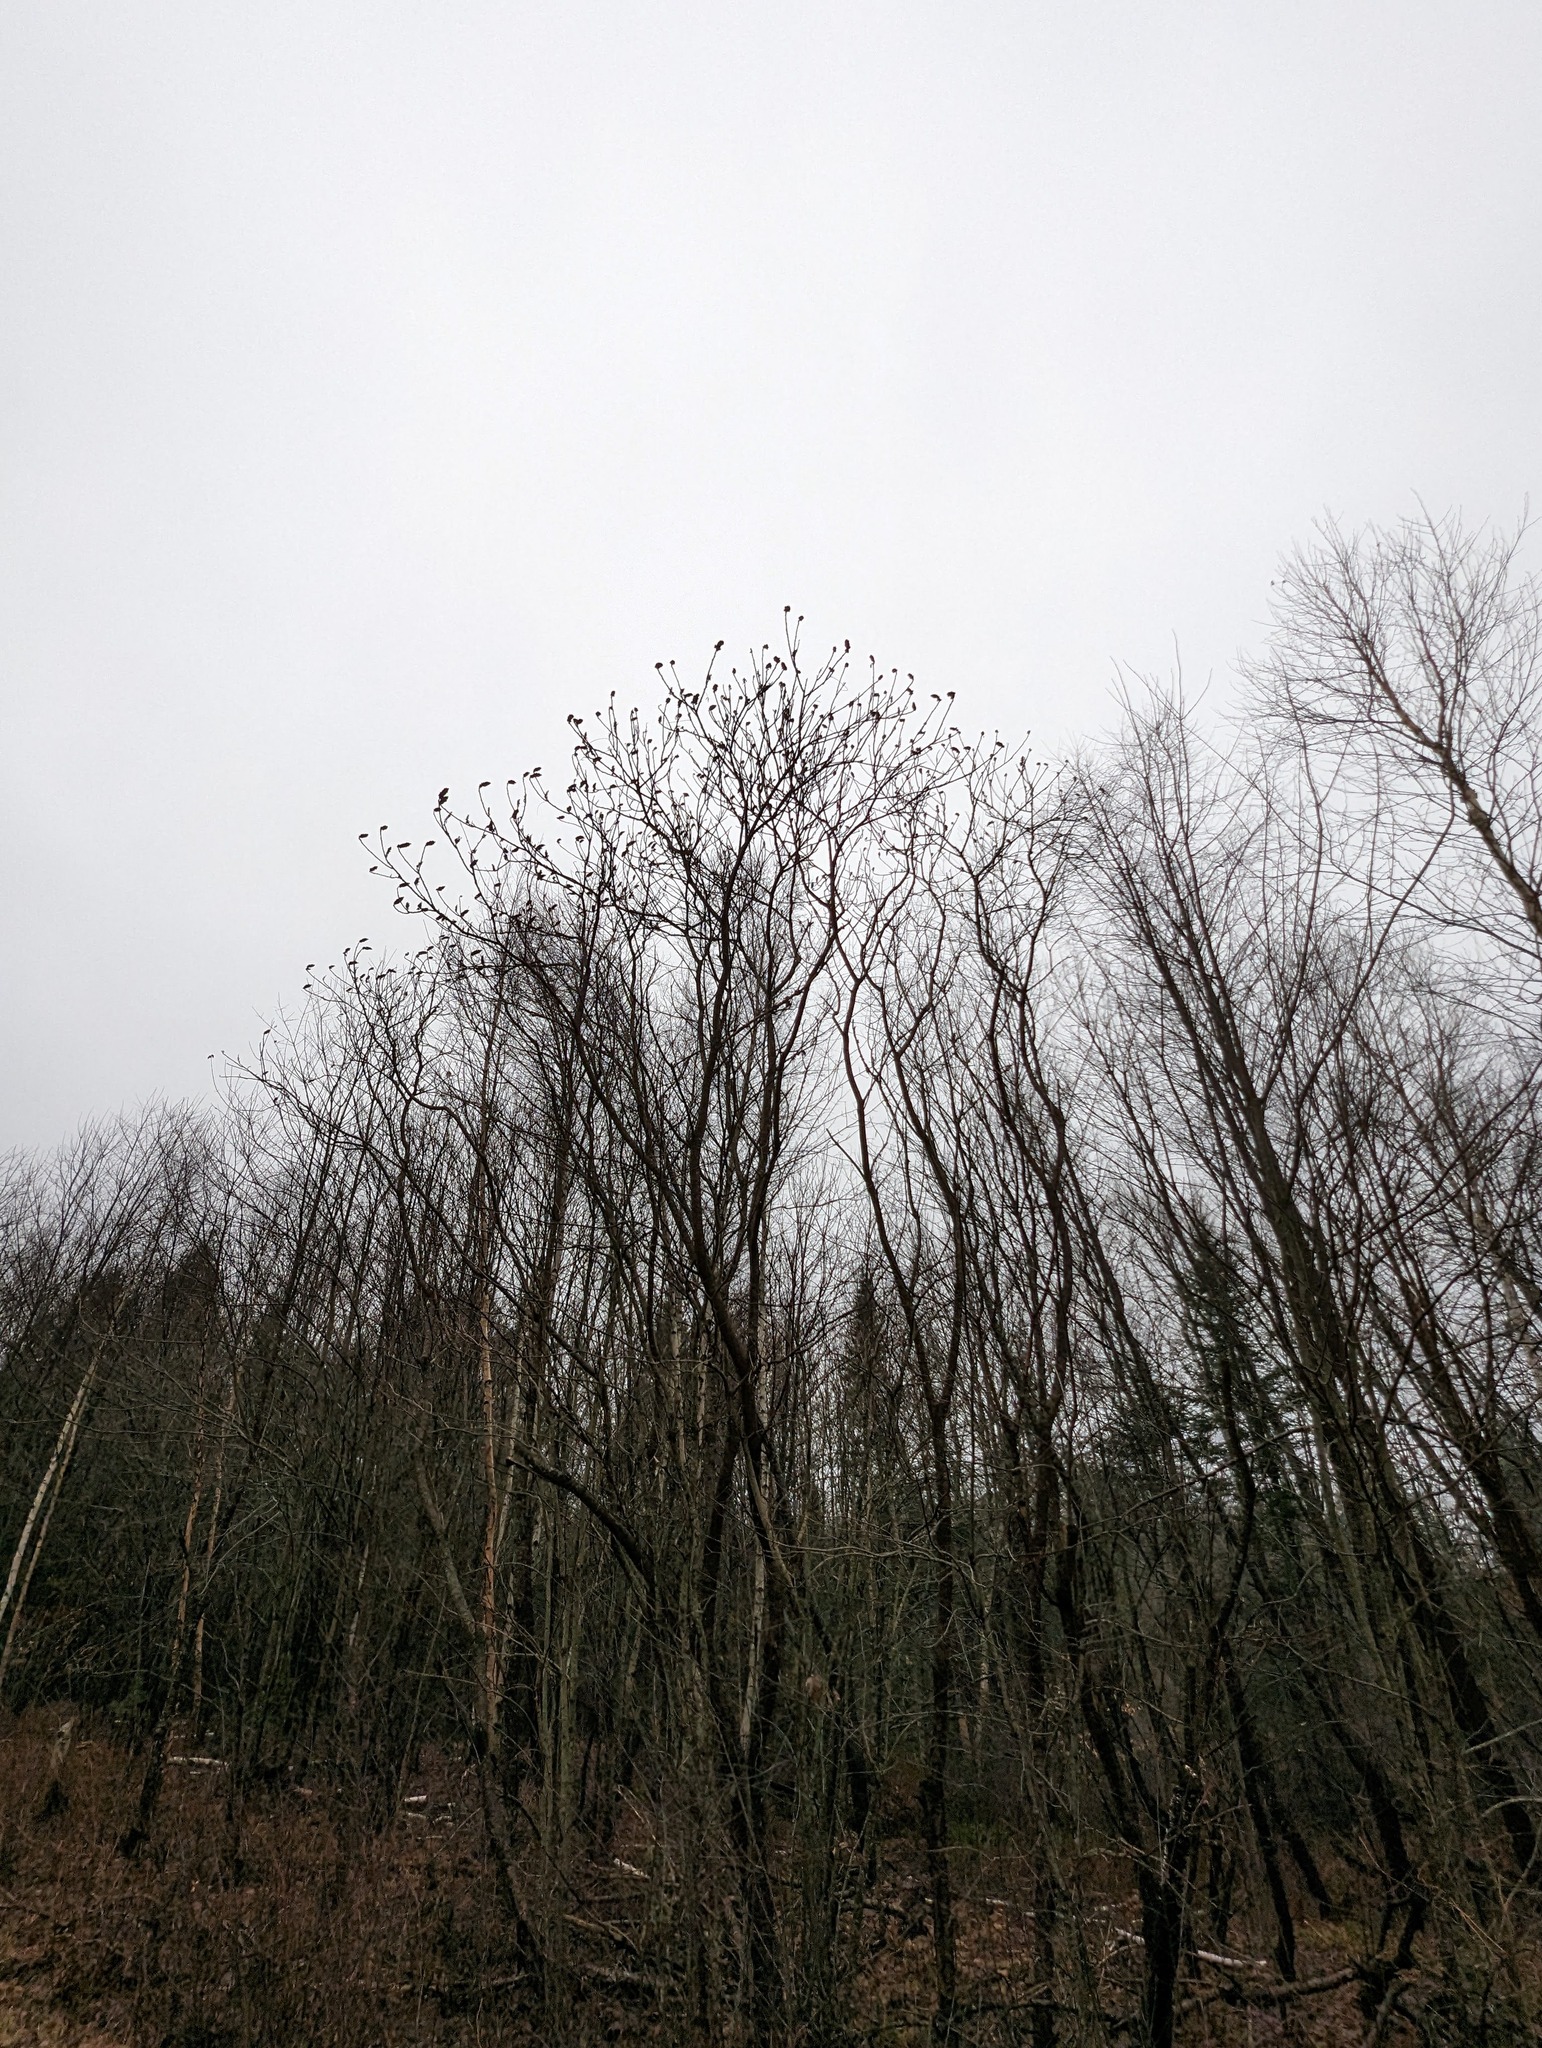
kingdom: Plantae
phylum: Tracheophyta
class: Magnoliopsida
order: Sapindales
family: Anacardiaceae
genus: Rhus
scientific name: Rhus typhina
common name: Staghorn sumac
